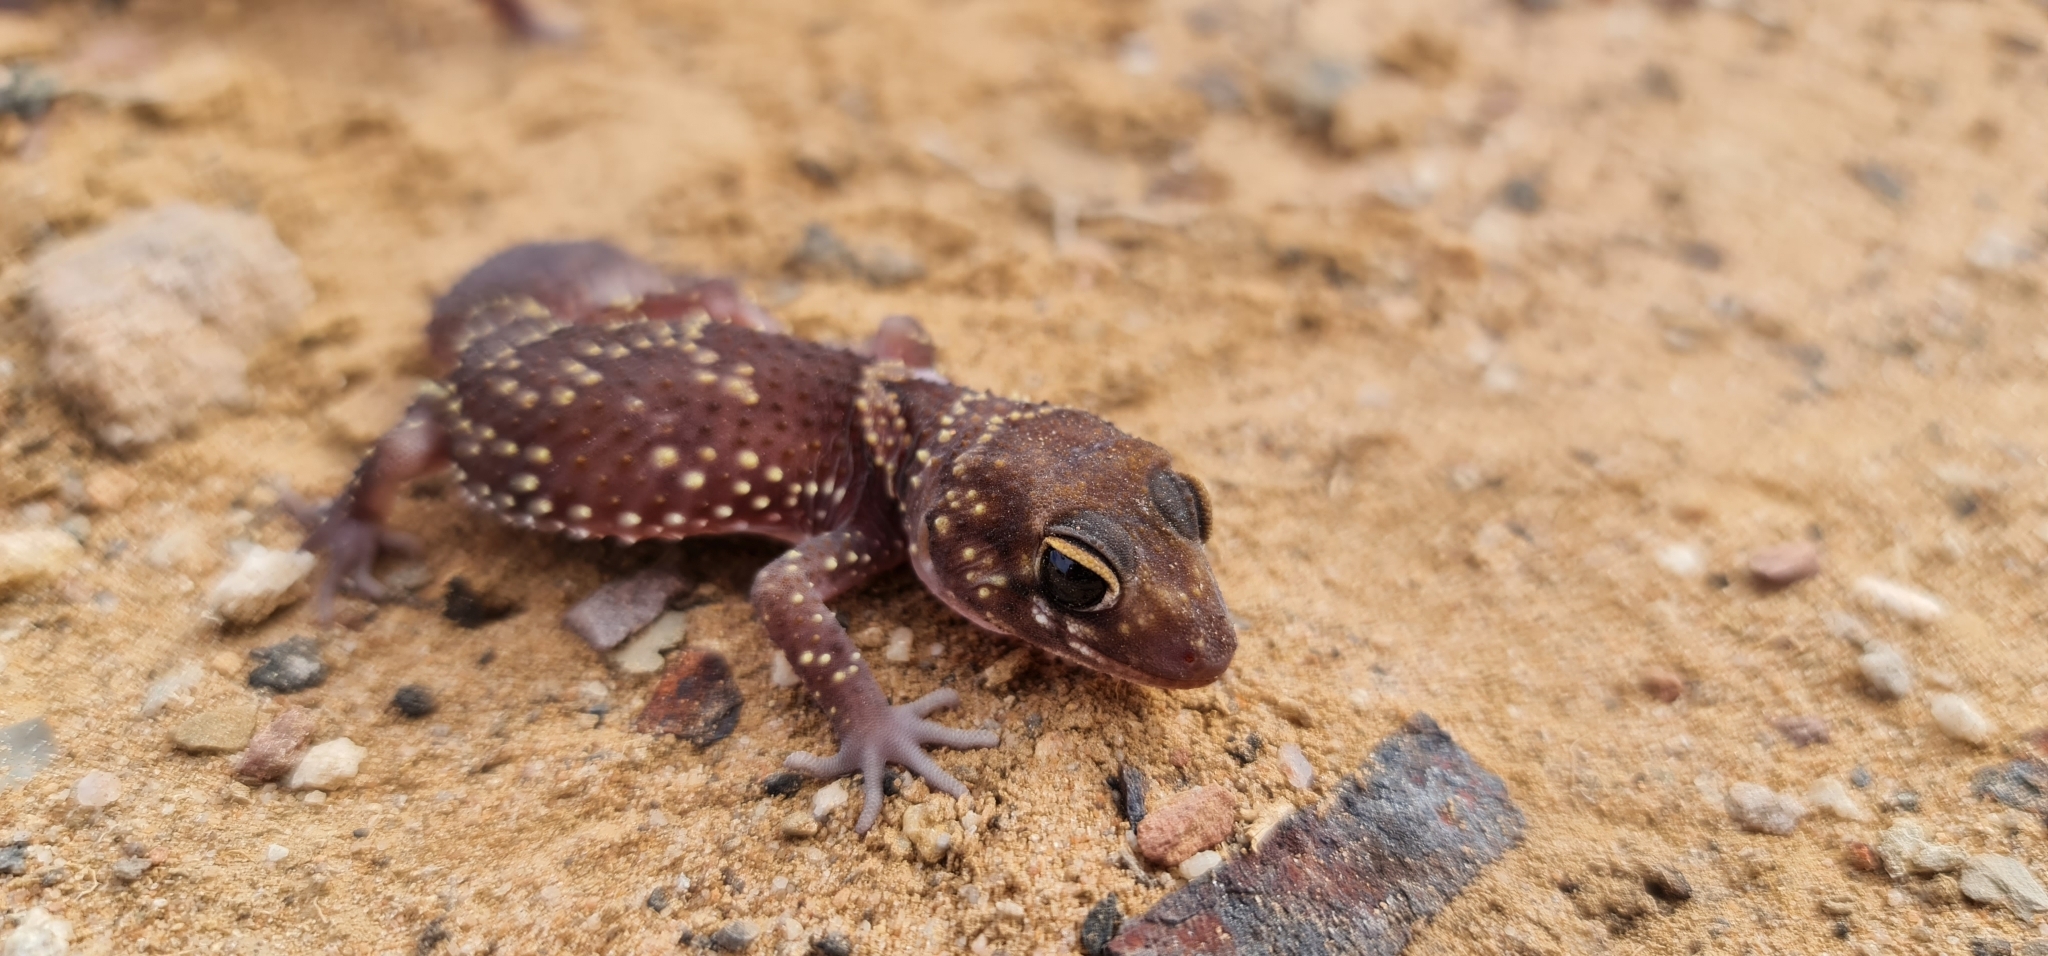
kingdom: Animalia
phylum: Chordata
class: Squamata
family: Carphodactylidae
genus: Underwoodisaurus
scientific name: Underwoodisaurus milii
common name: Barking gecko
